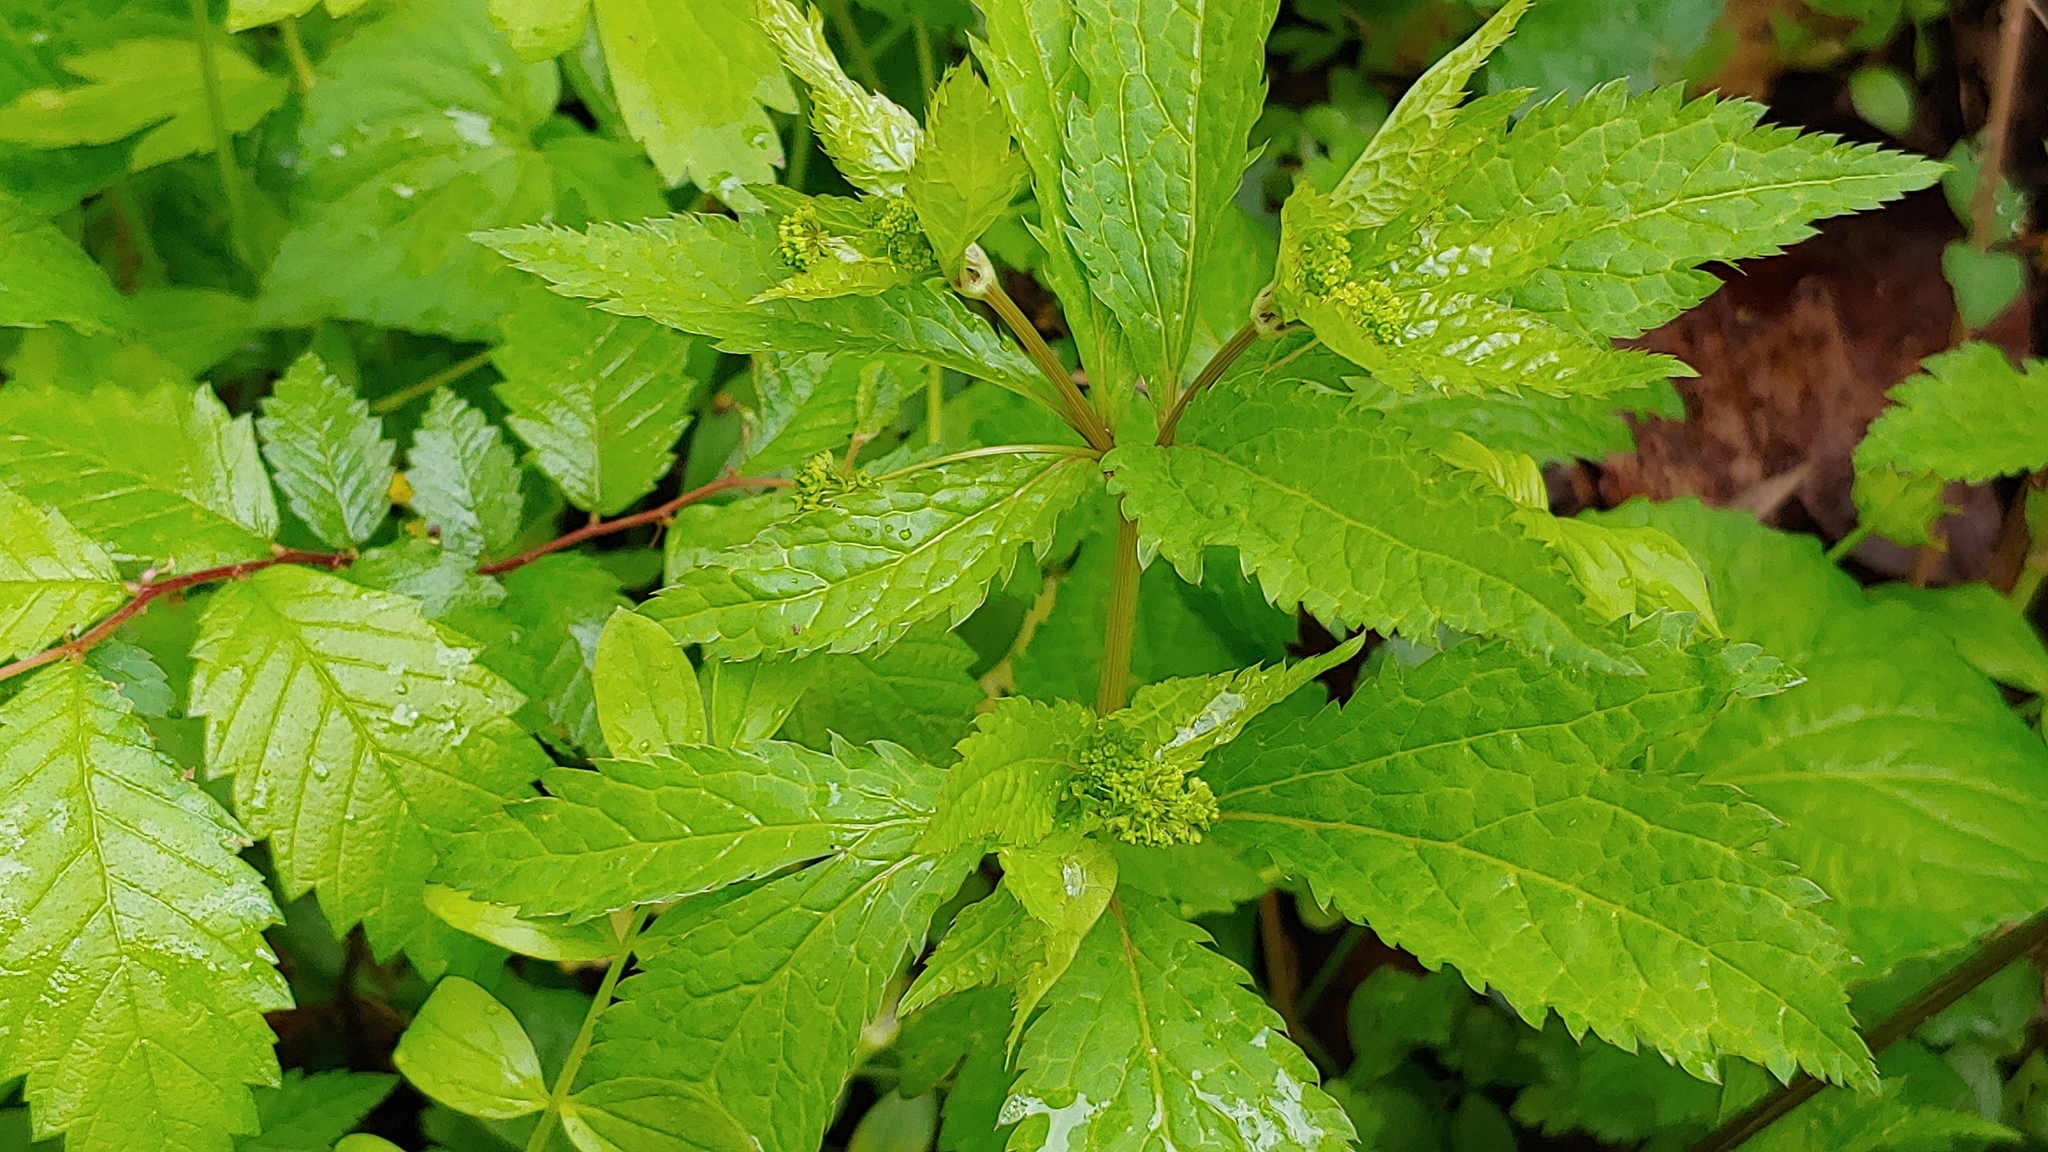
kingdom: Plantae
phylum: Tracheophyta
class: Magnoliopsida
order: Apiales
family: Apiaceae
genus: Sanicula
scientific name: Sanicula odorata
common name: Cluster sanicle
